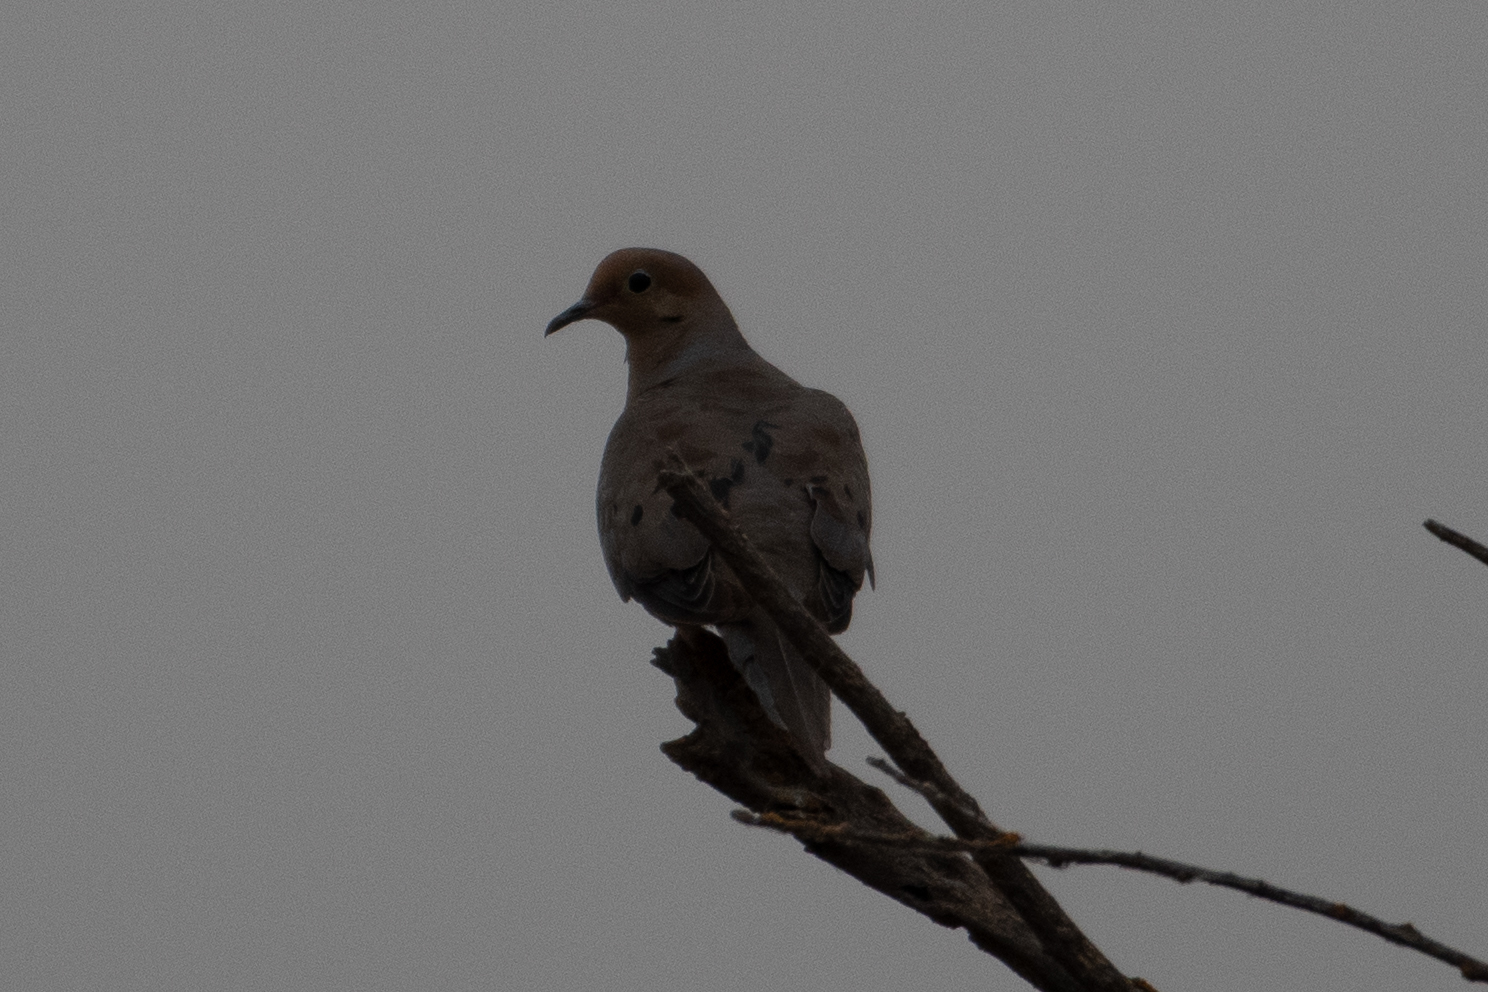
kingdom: Animalia
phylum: Chordata
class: Aves
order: Columbiformes
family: Columbidae
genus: Zenaida
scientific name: Zenaida macroura
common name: Mourning dove
